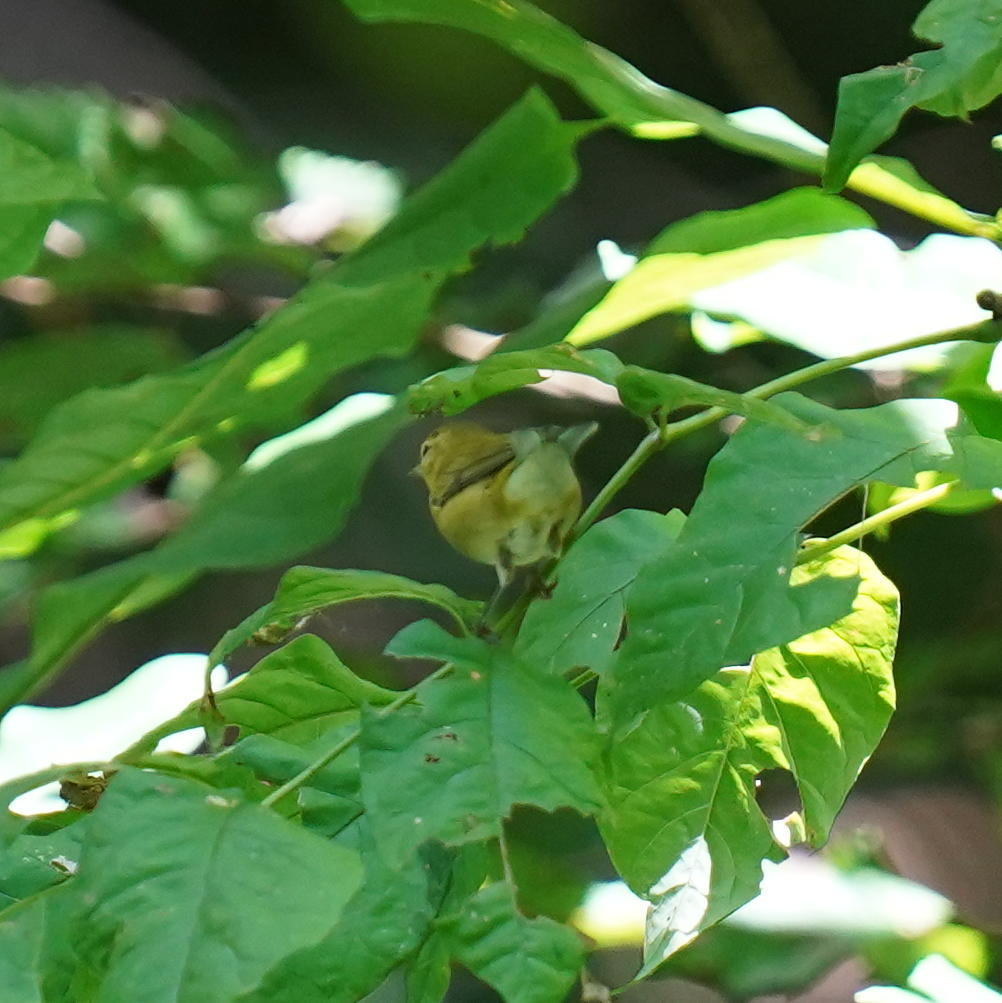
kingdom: Animalia
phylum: Chordata
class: Aves
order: Passeriformes
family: Parulidae
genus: Leiothlypis
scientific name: Leiothlypis peregrina
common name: Tennessee warbler
